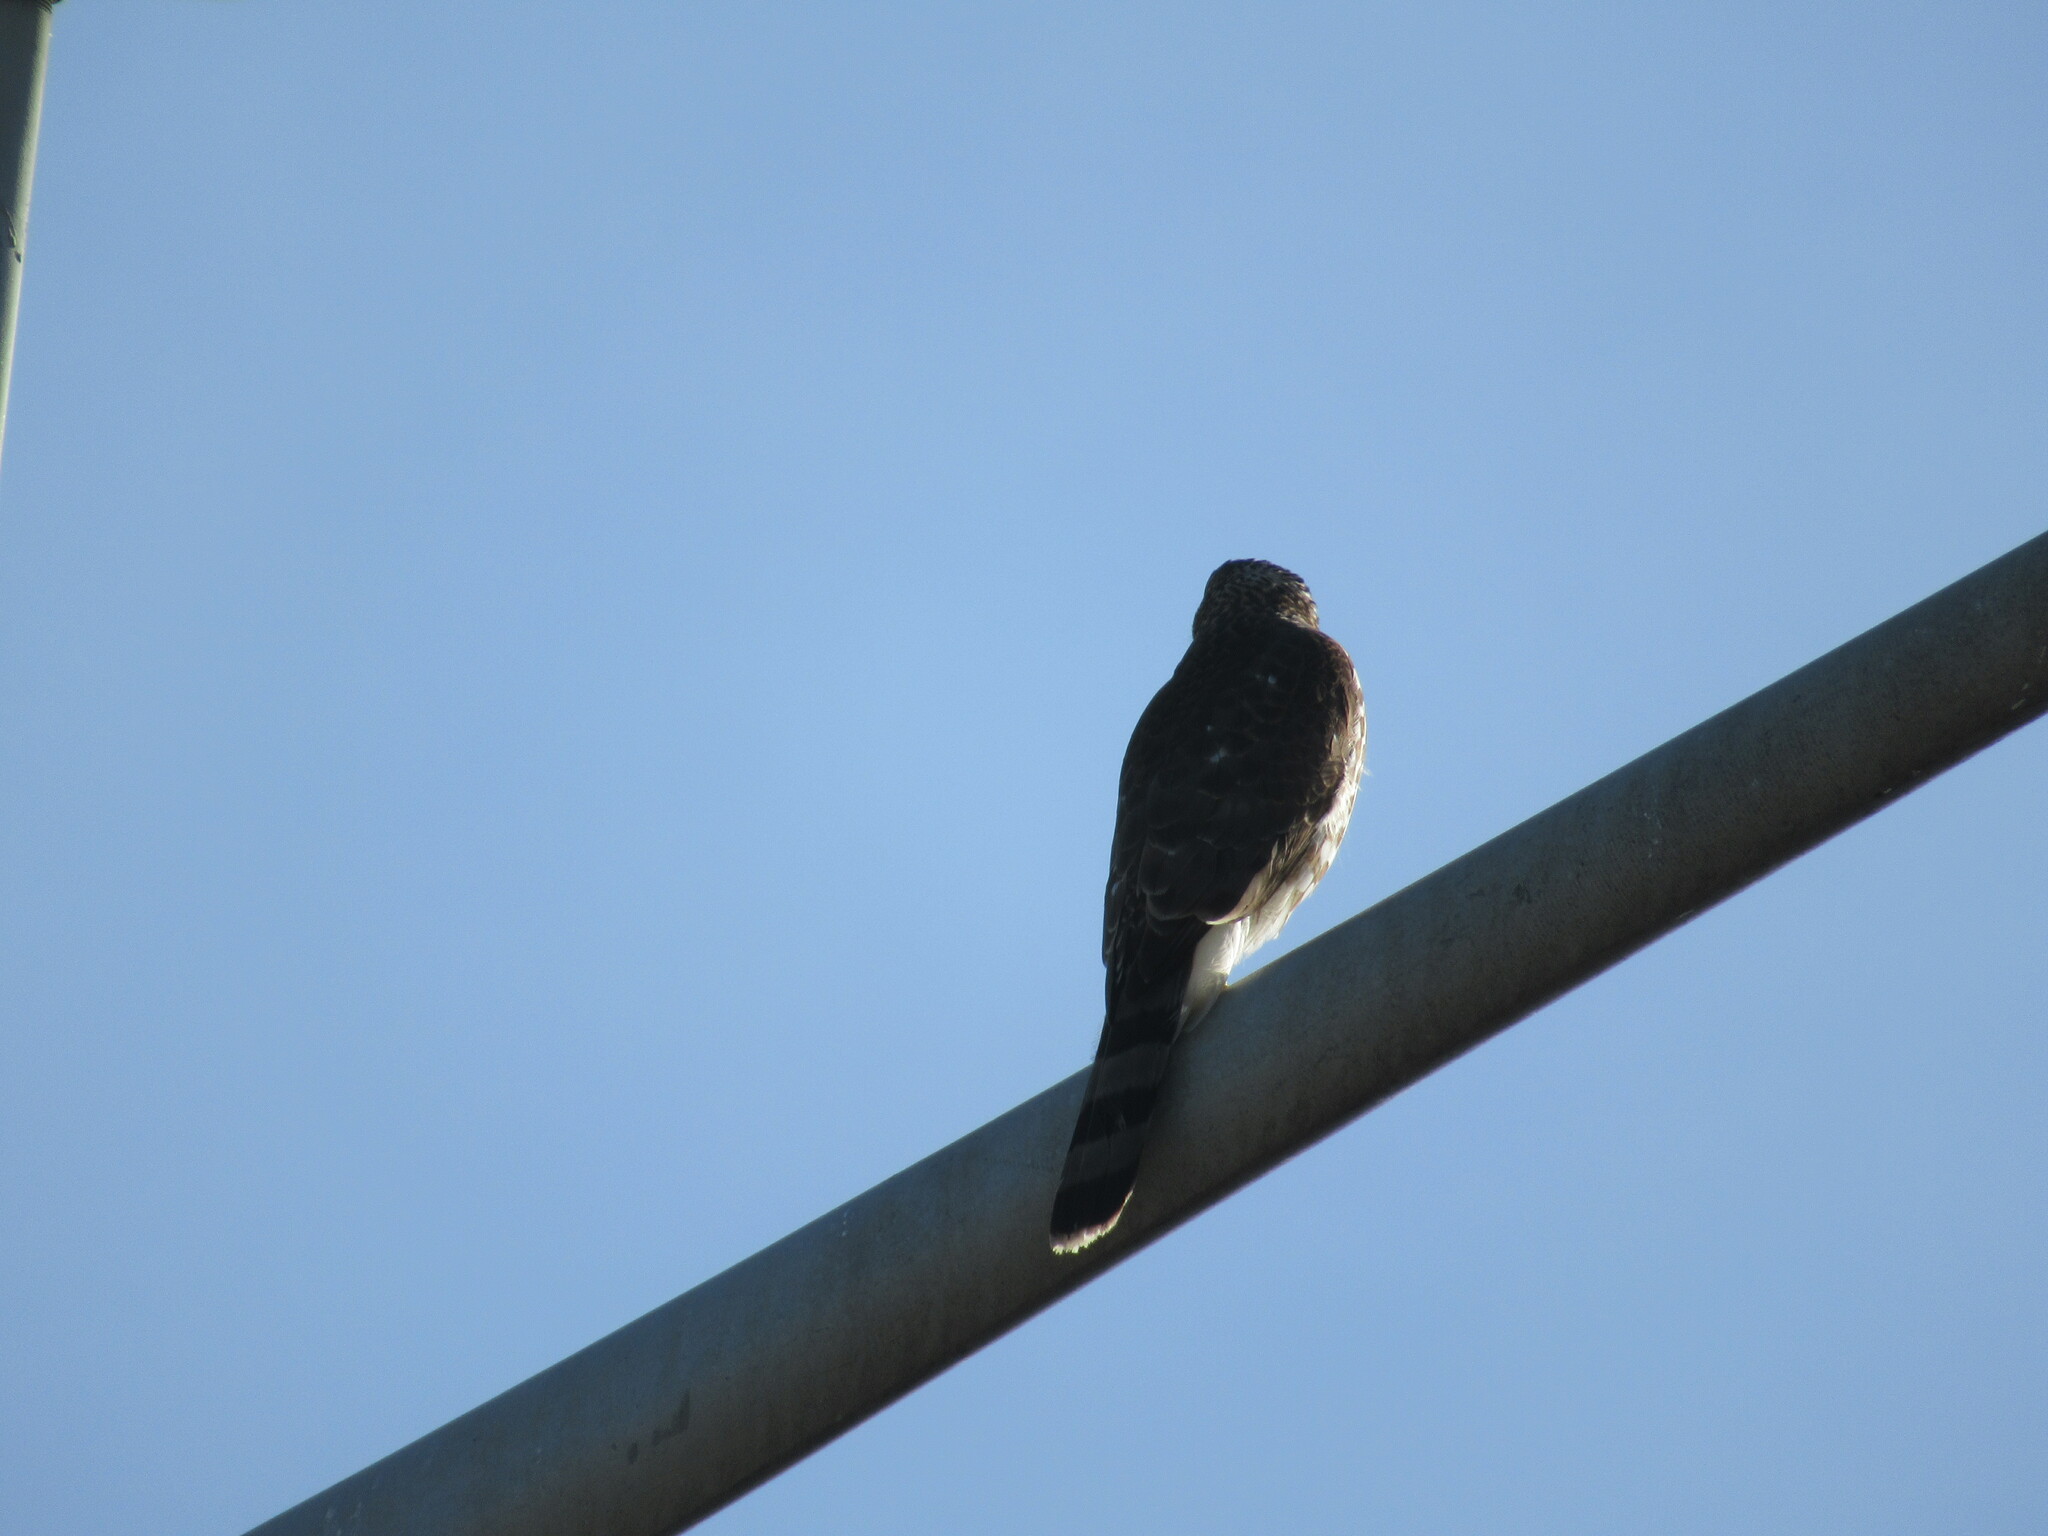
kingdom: Animalia
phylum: Chordata
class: Aves
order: Accipitriformes
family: Accipitridae
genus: Accipiter
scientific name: Accipiter cooperii
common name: Cooper's hawk
